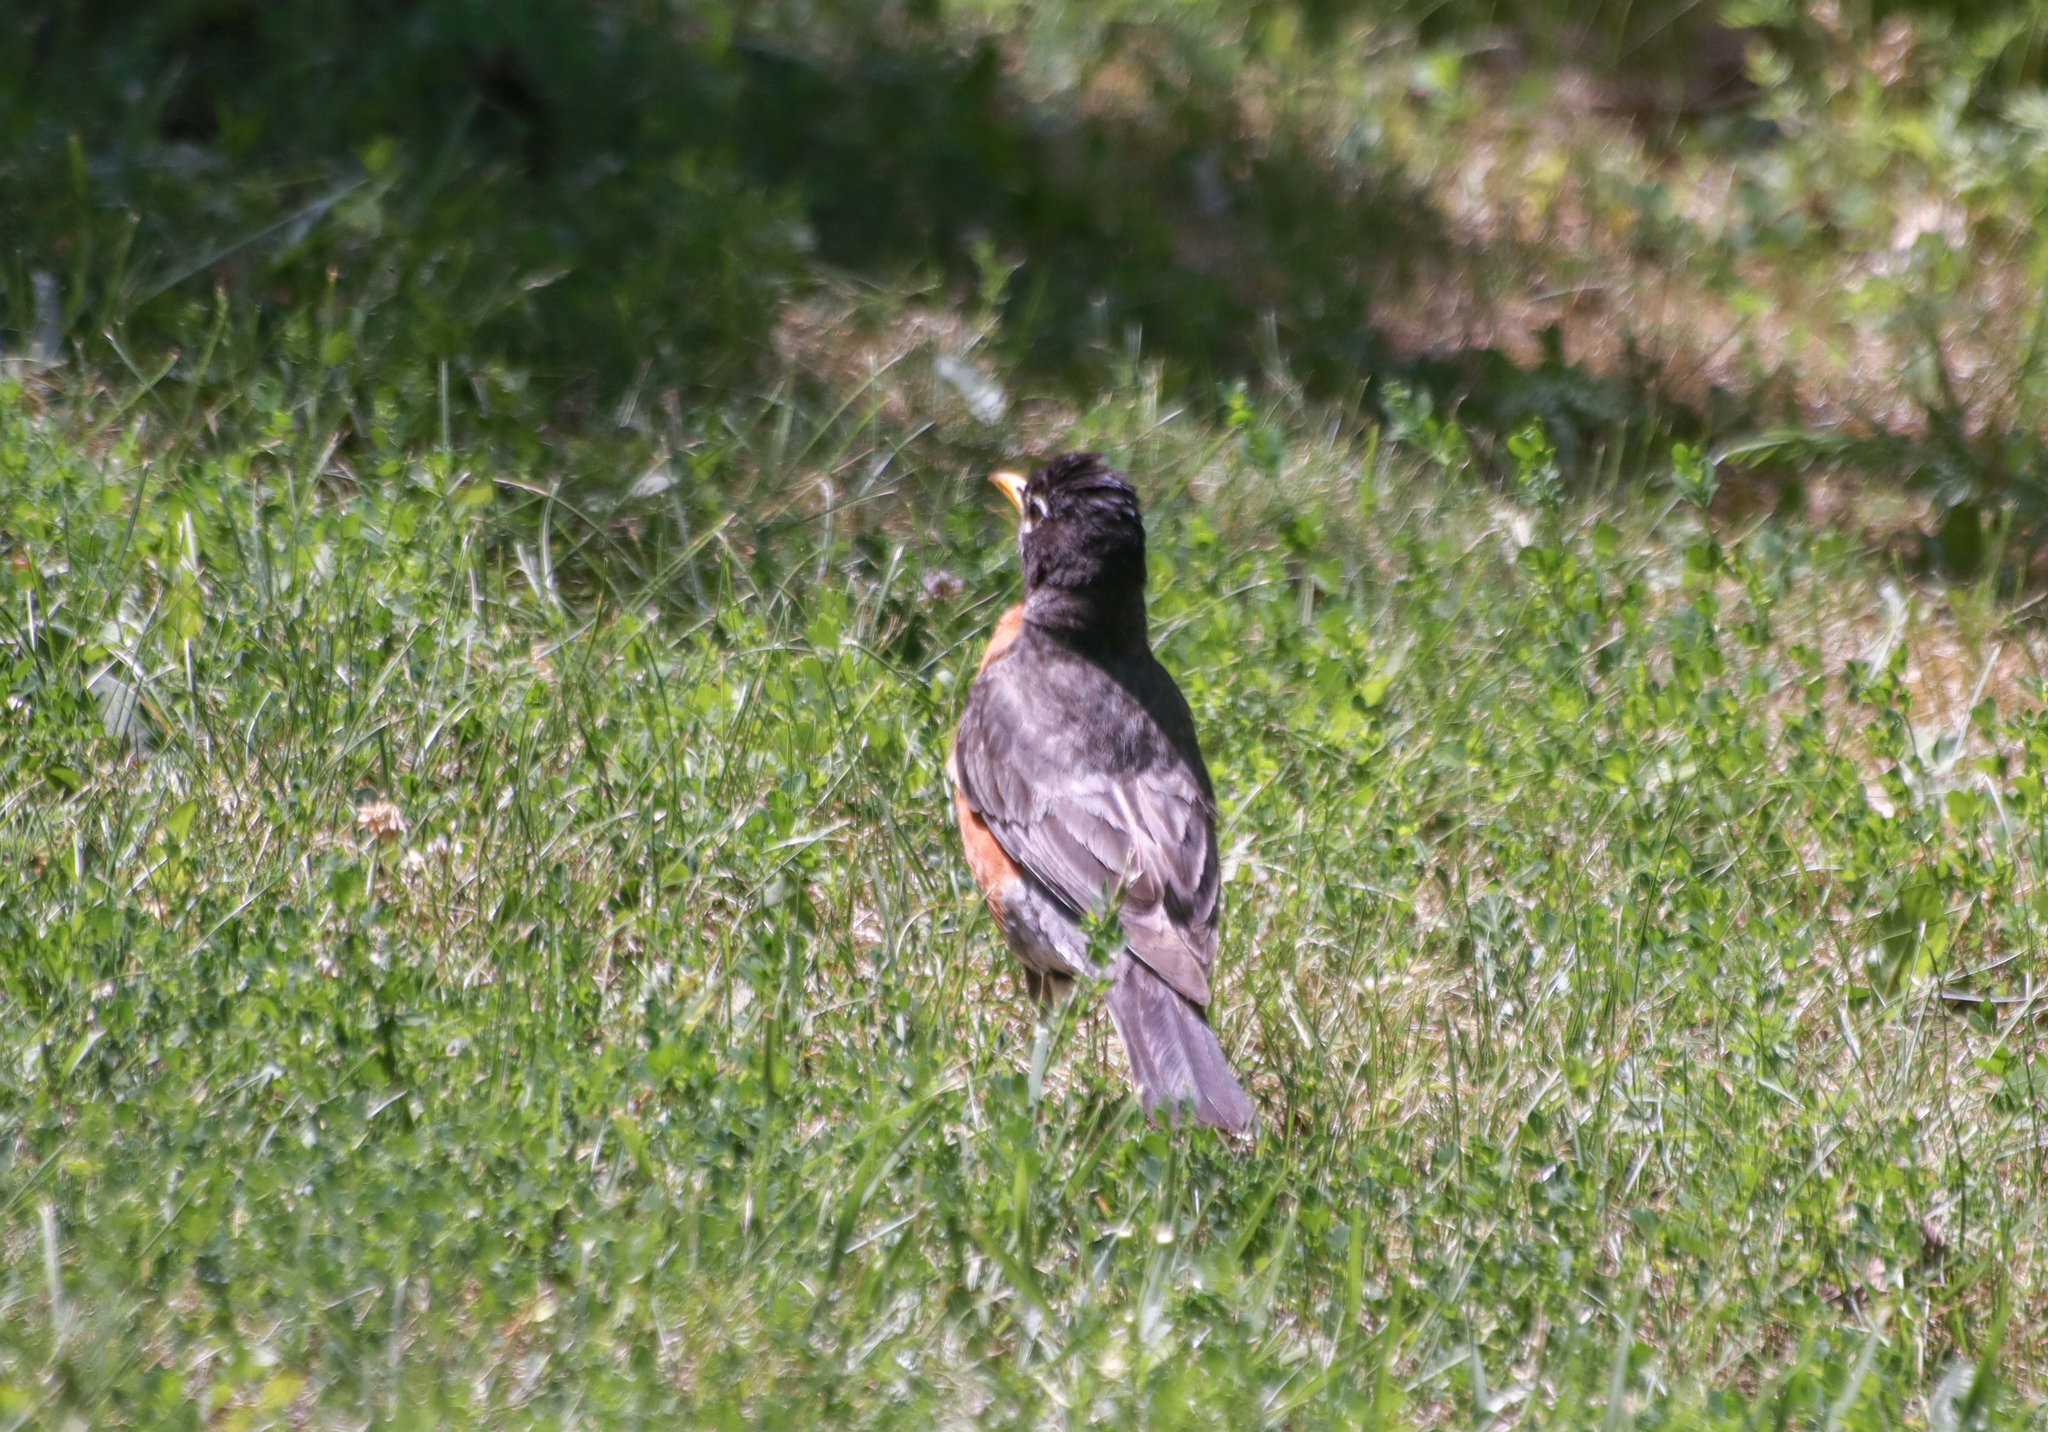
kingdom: Animalia
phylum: Chordata
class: Aves
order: Passeriformes
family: Turdidae
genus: Turdus
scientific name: Turdus migratorius
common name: American robin
